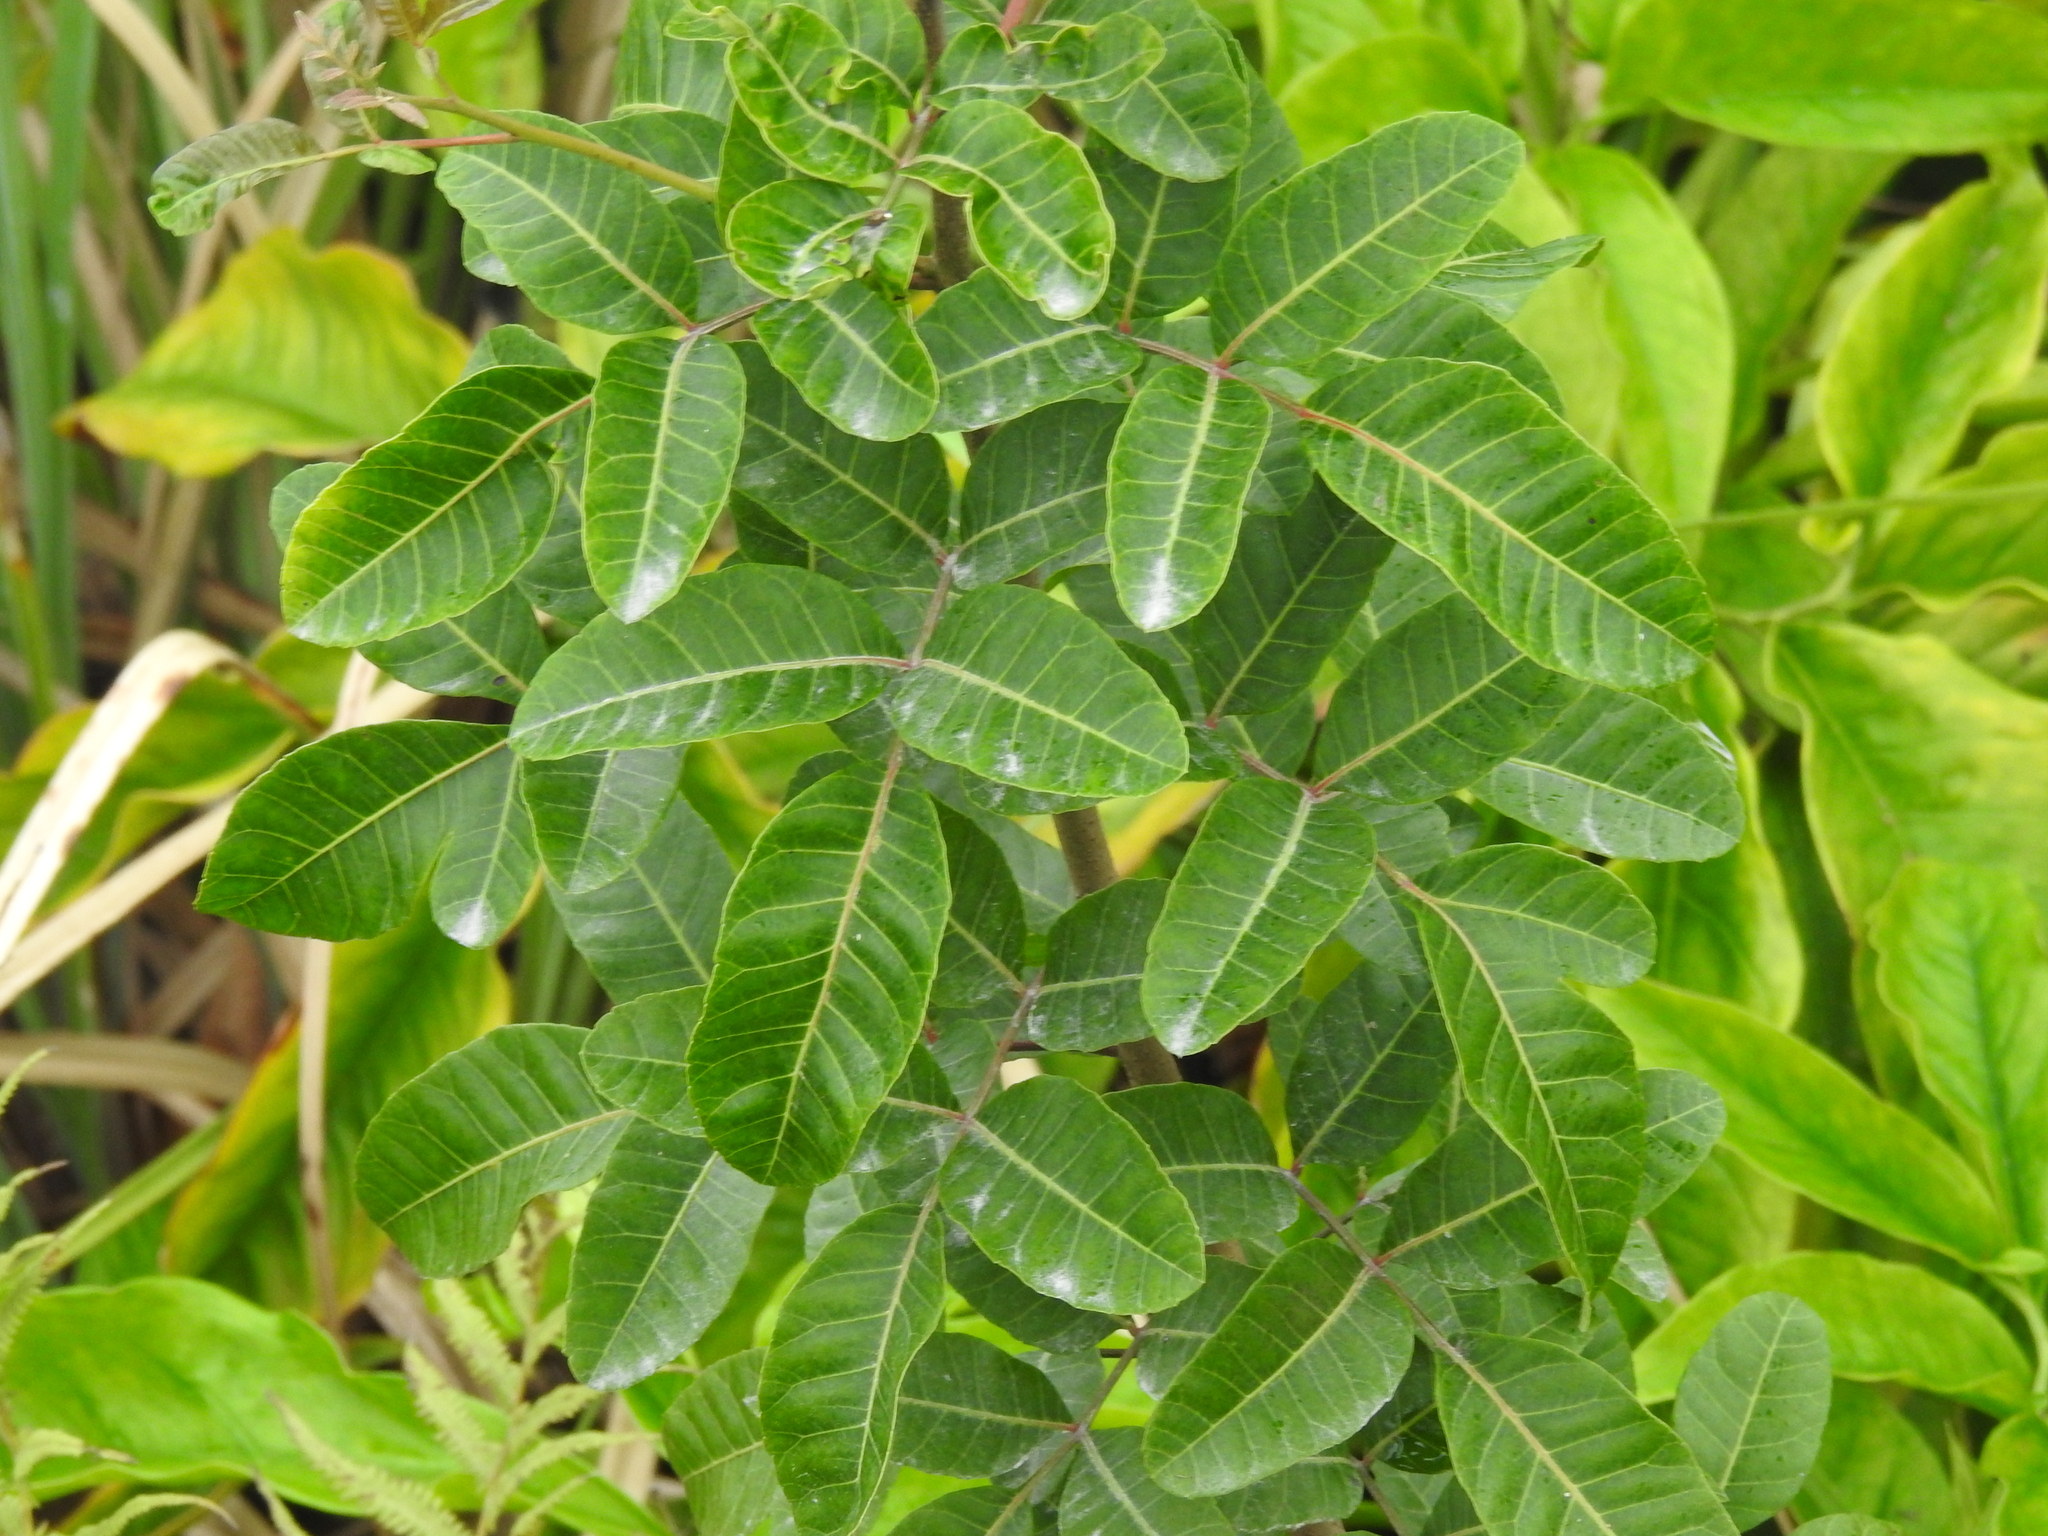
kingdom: Plantae
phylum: Tracheophyta
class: Magnoliopsida
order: Sapindales
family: Anacardiaceae
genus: Schinus
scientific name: Schinus terebinthifolia
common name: Brazilian peppertree
